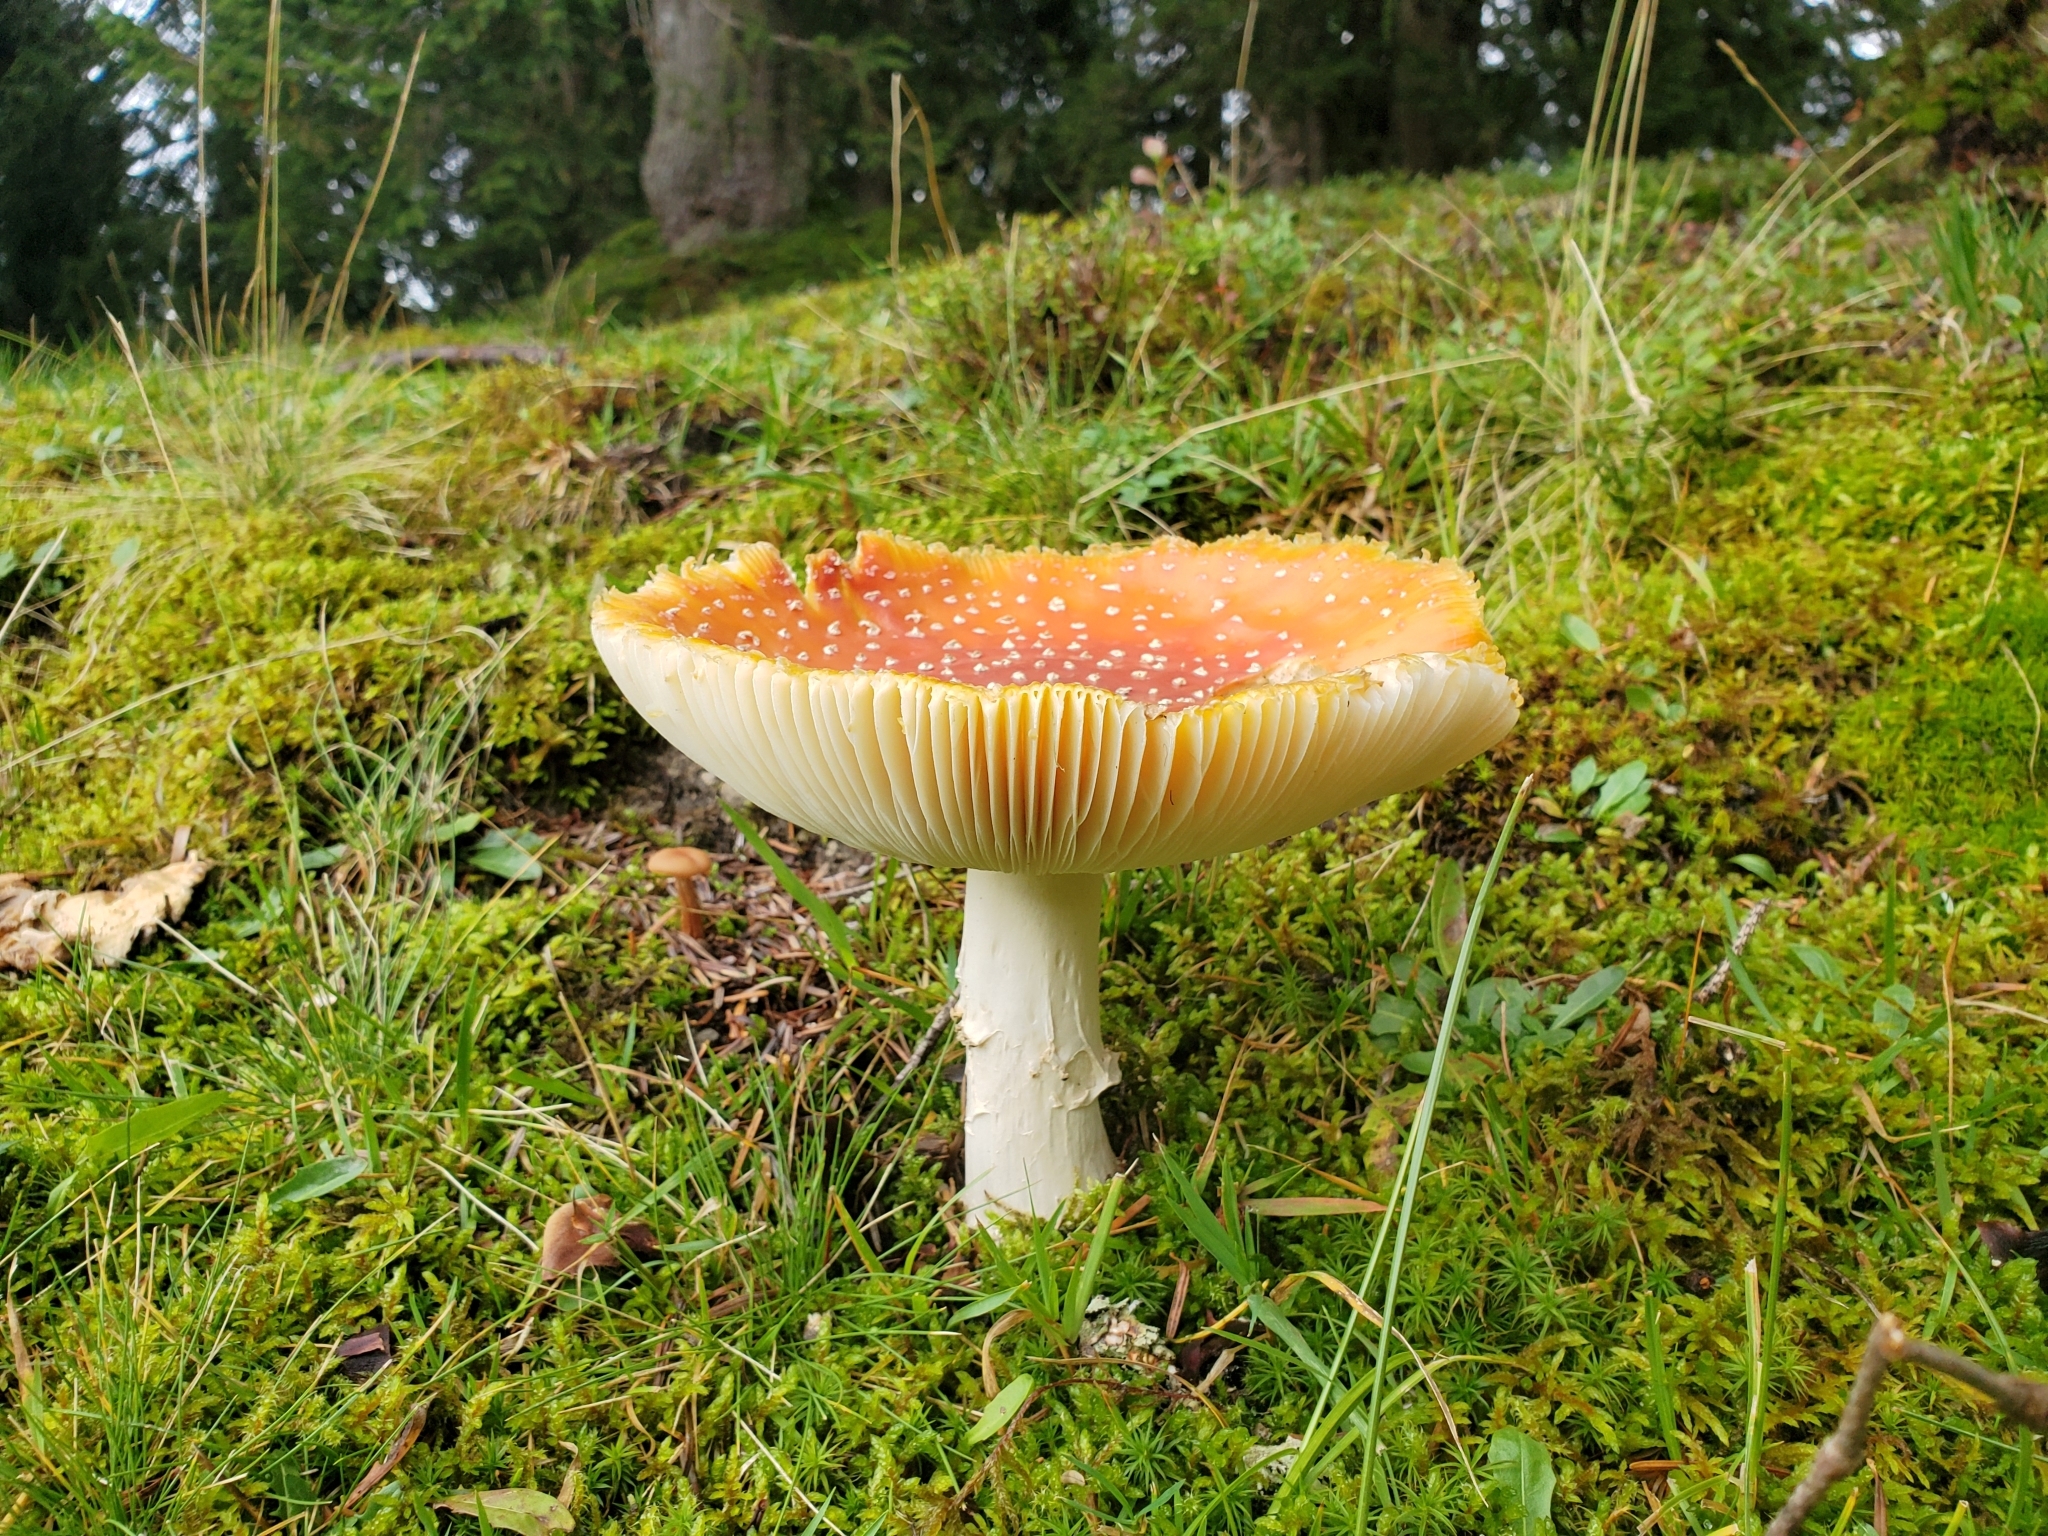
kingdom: Fungi
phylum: Basidiomycota
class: Agaricomycetes
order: Agaricales
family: Amanitaceae
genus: Amanita
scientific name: Amanita muscaria
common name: Fly agaric
